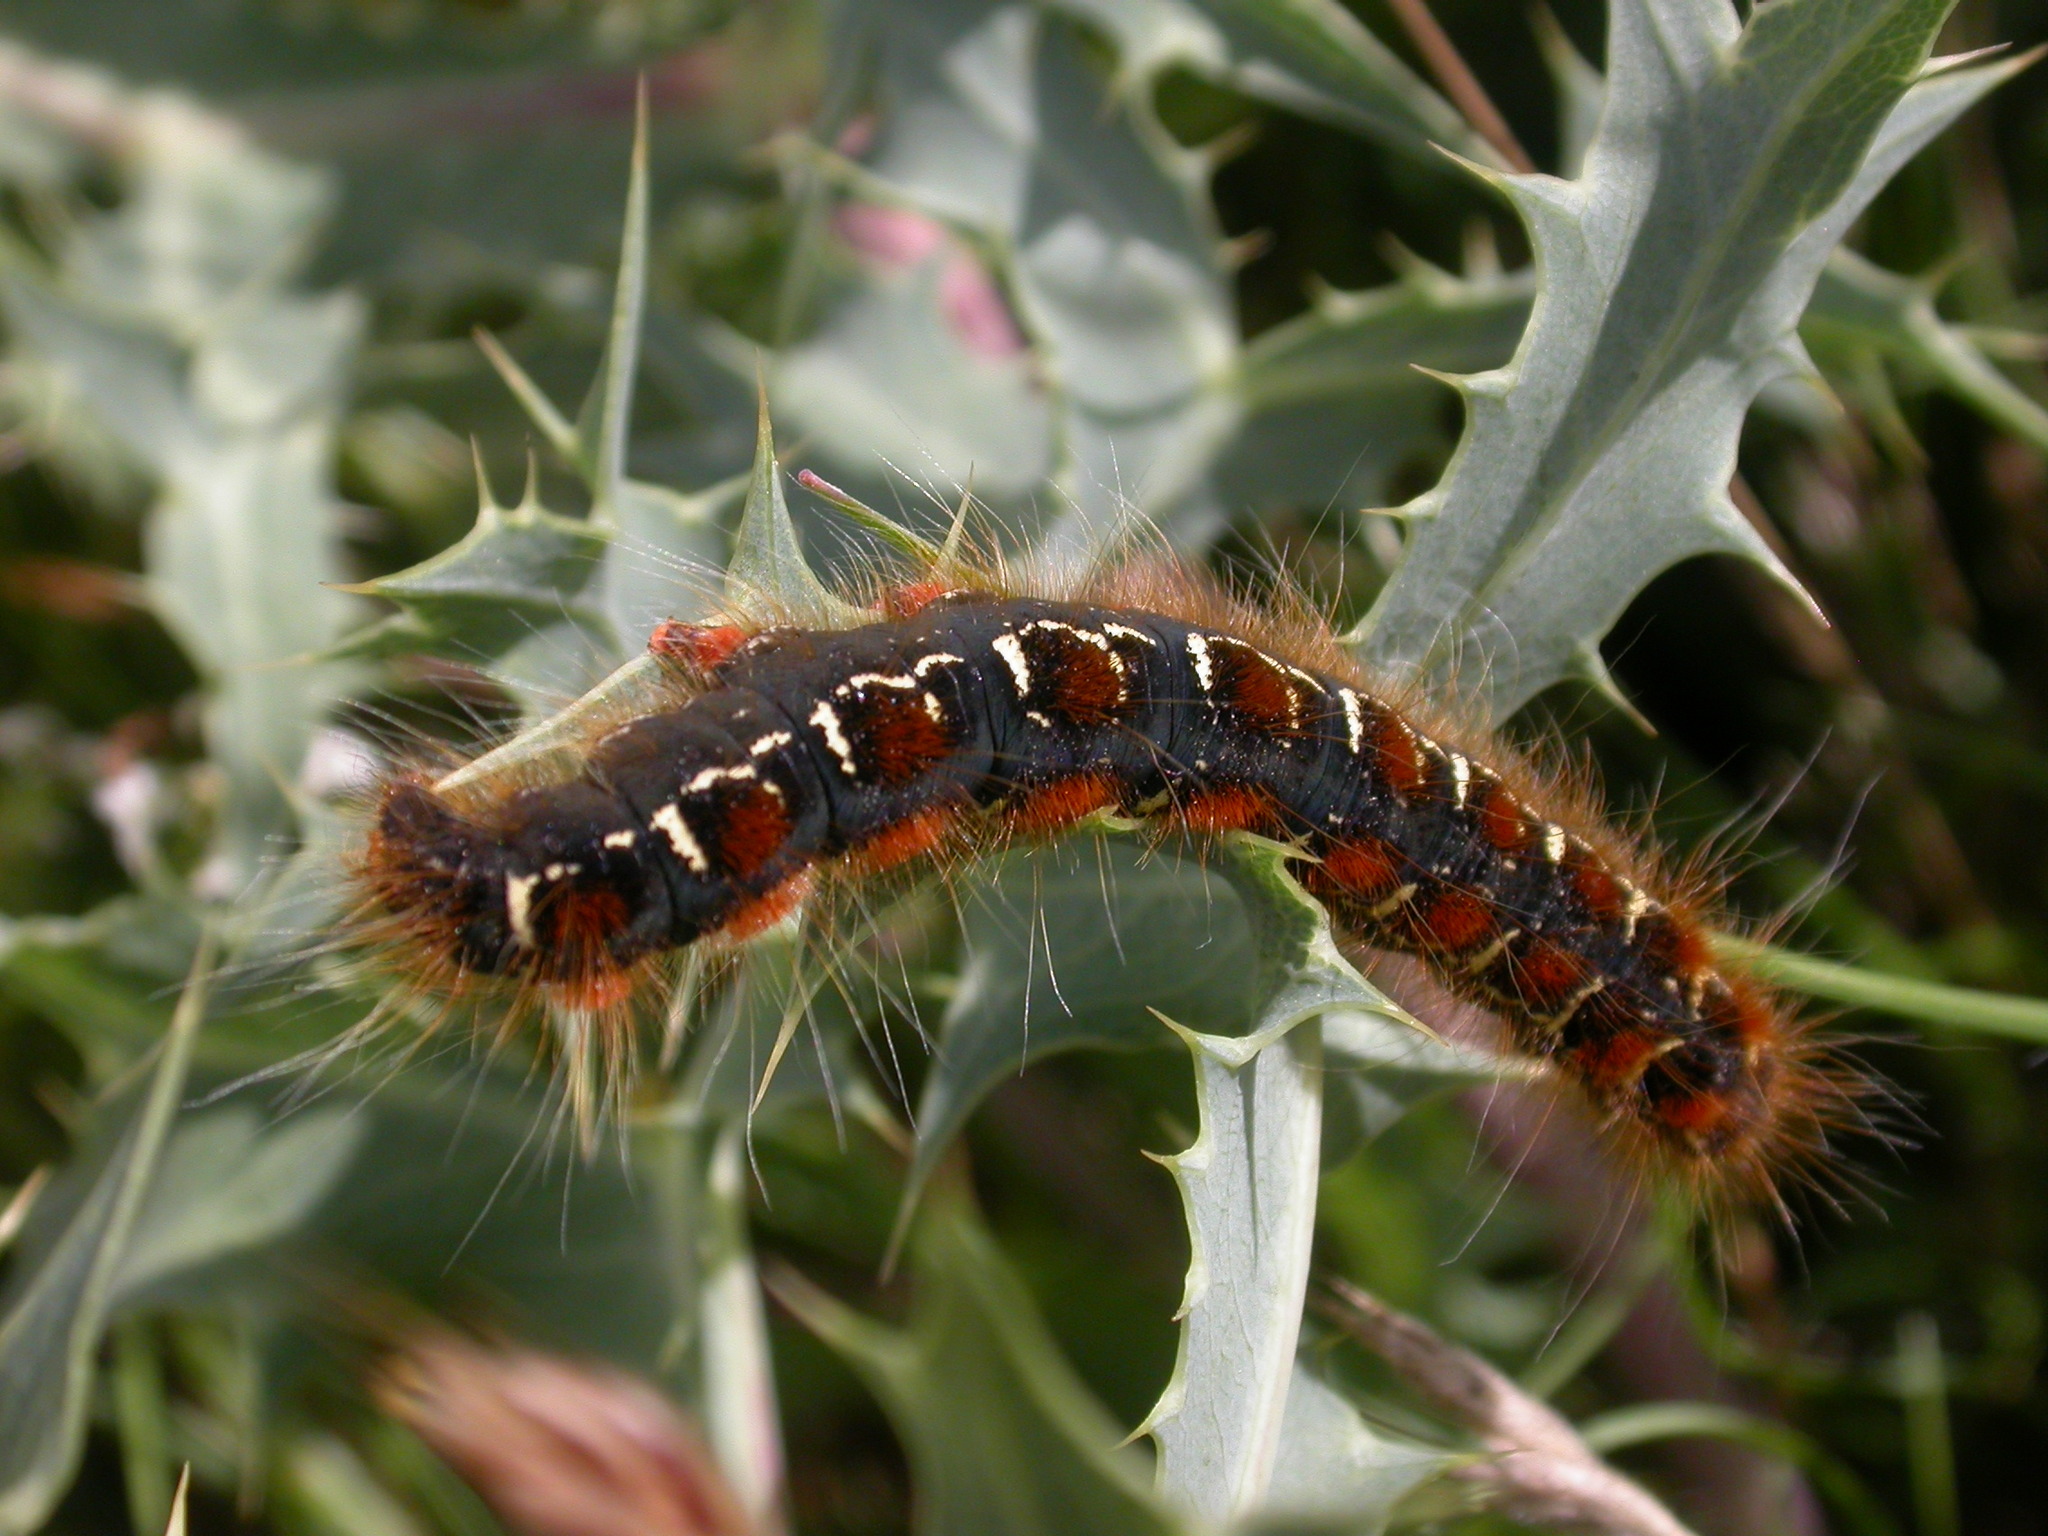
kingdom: Animalia
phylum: Arthropoda
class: Insecta
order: Lepidoptera
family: Lasiocampidae
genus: Eriogaster
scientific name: Eriogaster lanestris
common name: Small eggar
